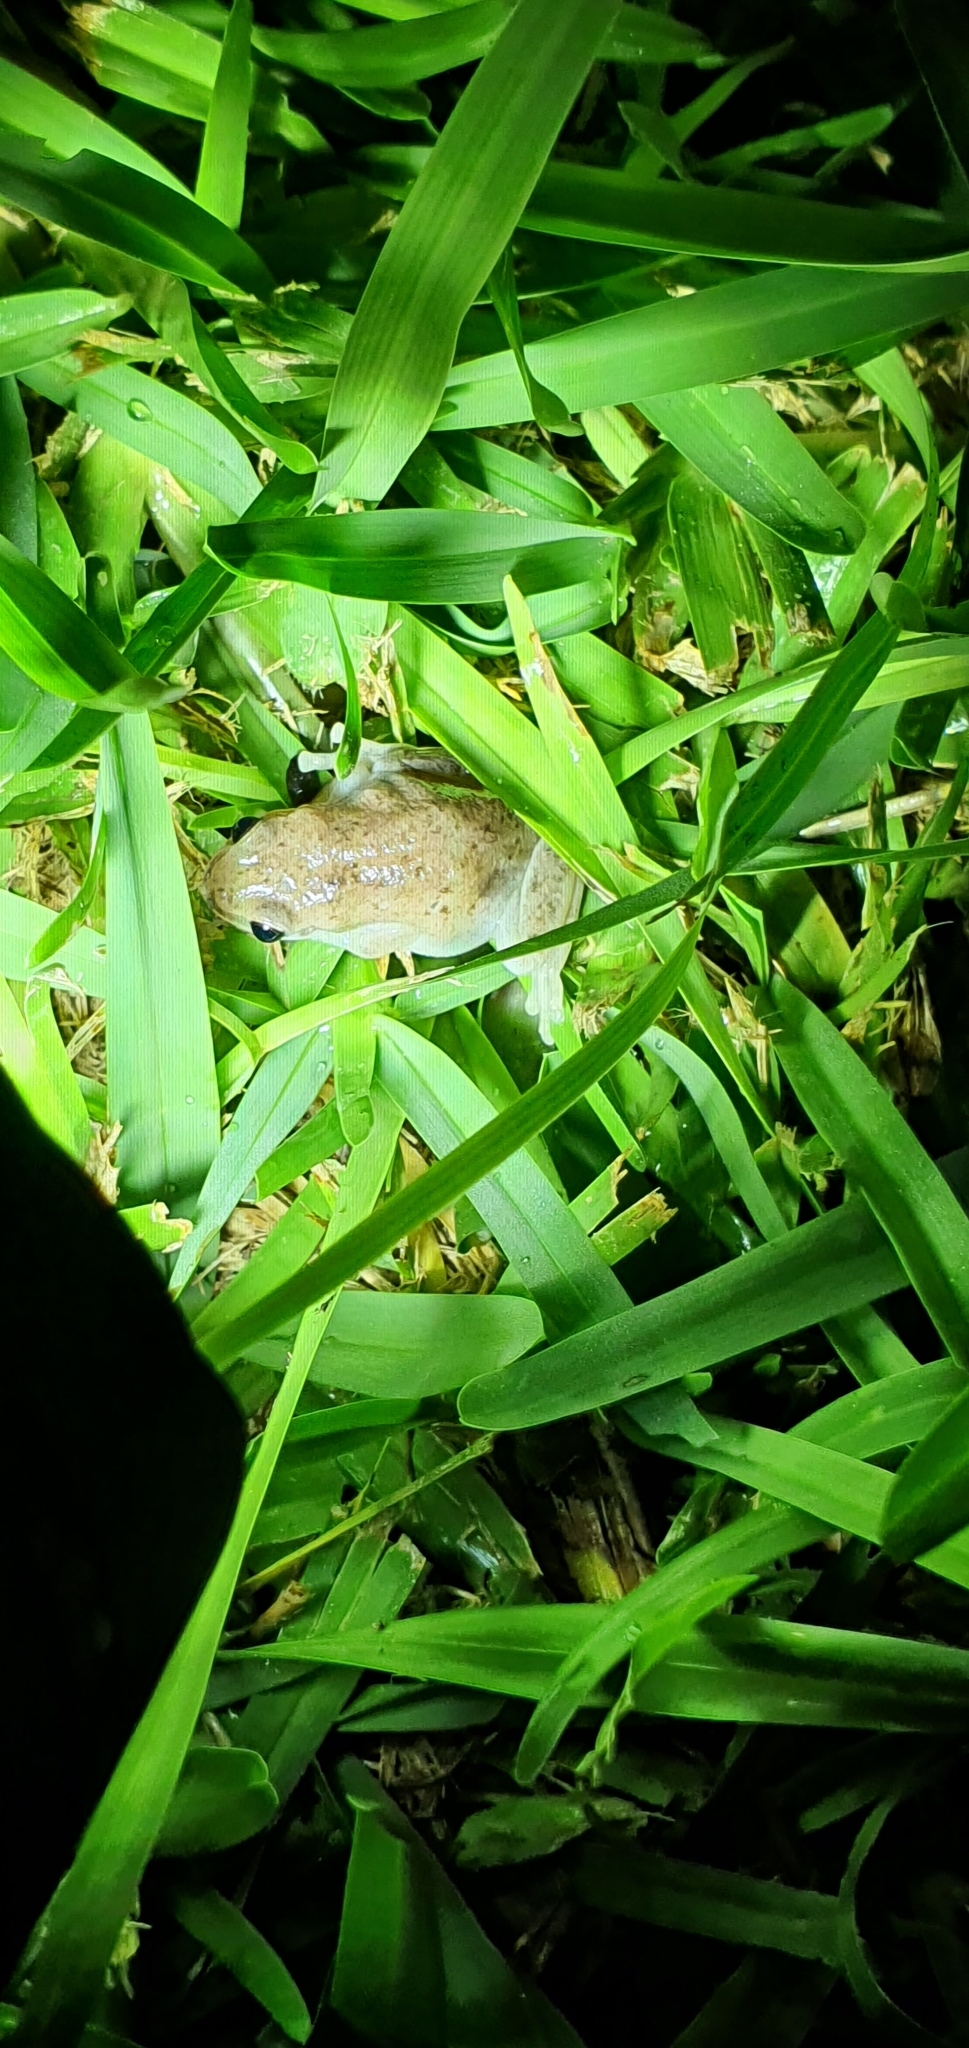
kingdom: Animalia
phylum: Chordata
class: Amphibia
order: Anura
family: Pelodryadidae
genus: Litoria
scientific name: Litoria rubella
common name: Desert tree frog
